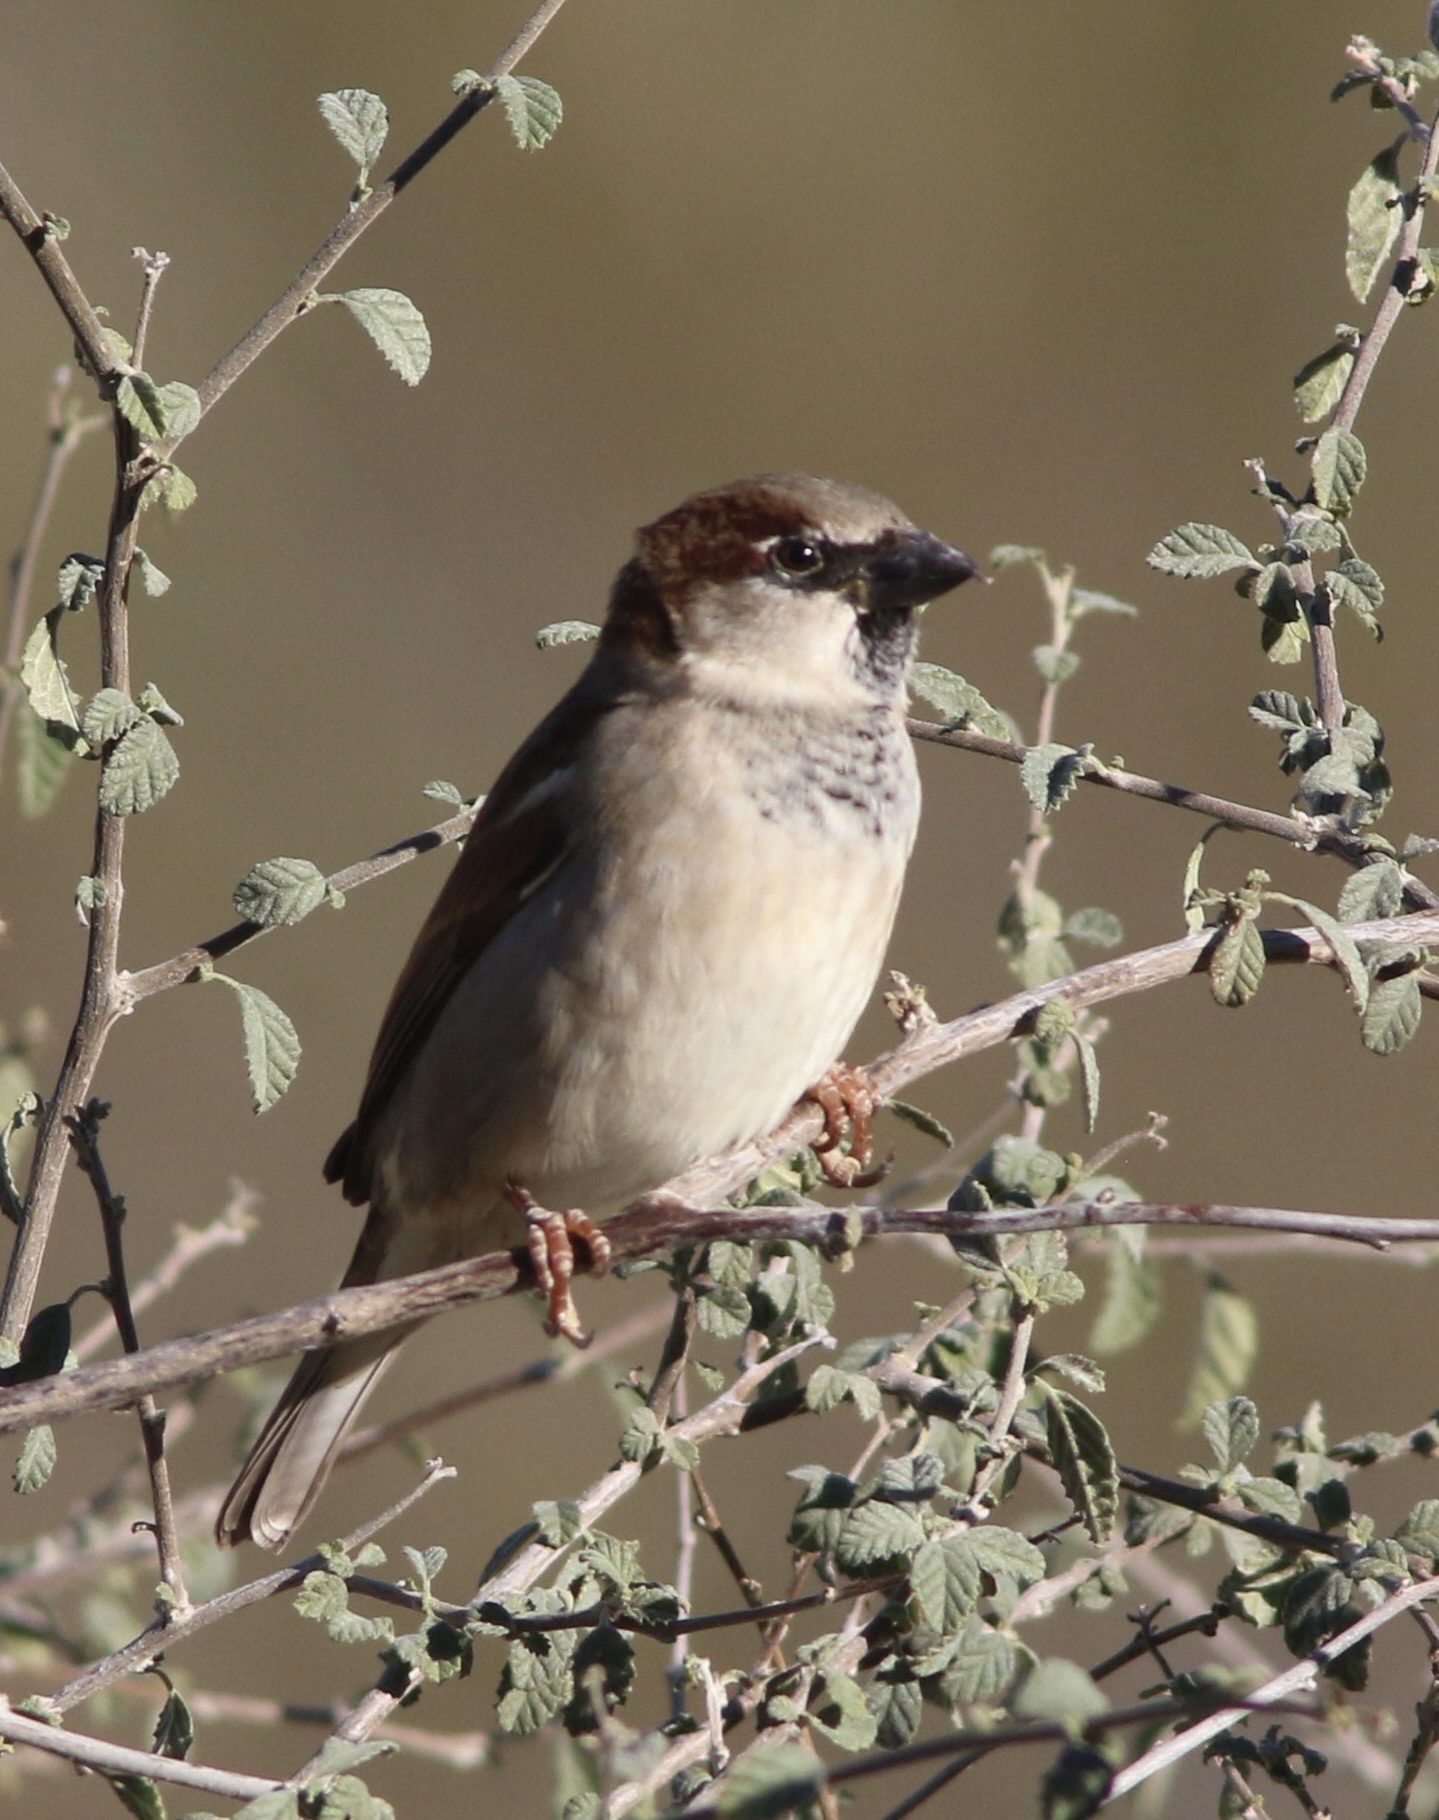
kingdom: Animalia
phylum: Chordata
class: Aves
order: Passeriformes
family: Passeridae
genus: Passer
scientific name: Passer domesticus
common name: House sparrow
